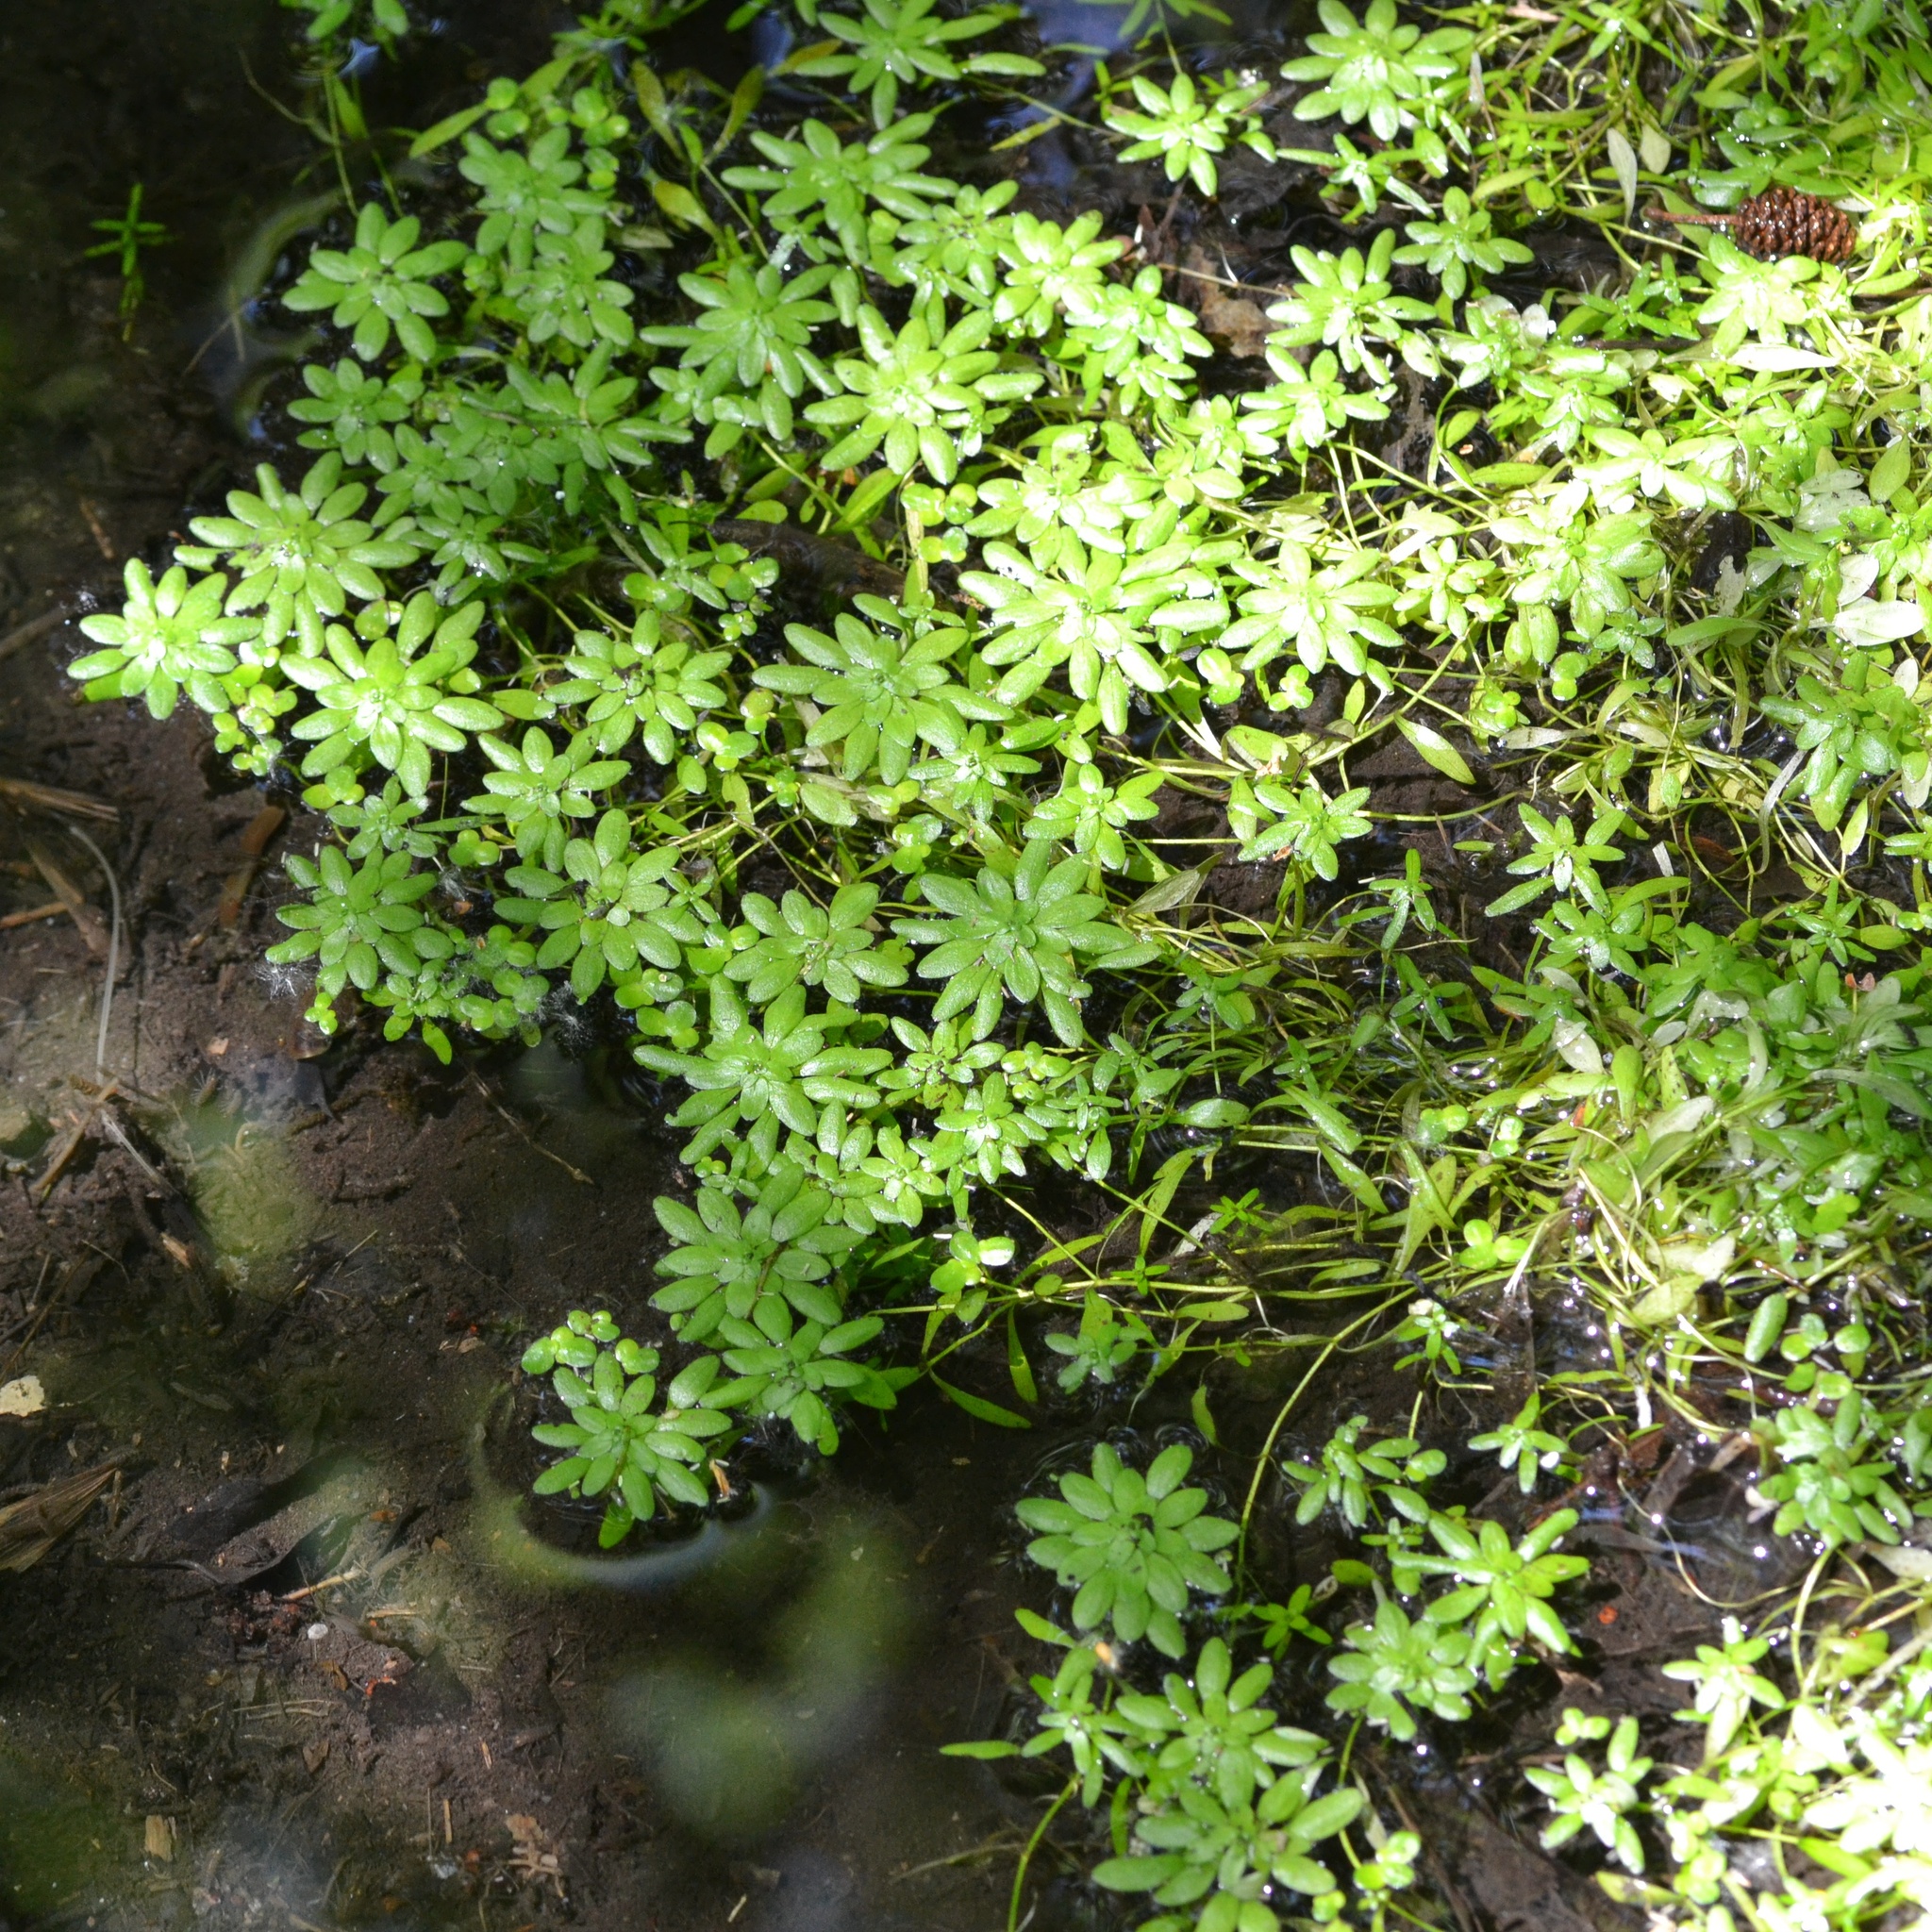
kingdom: Plantae
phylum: Tracheophyta
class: Magnoliopsida
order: Lamiales
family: Plantaginaceae
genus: Callitriche
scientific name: Callitriche cophocarpa
